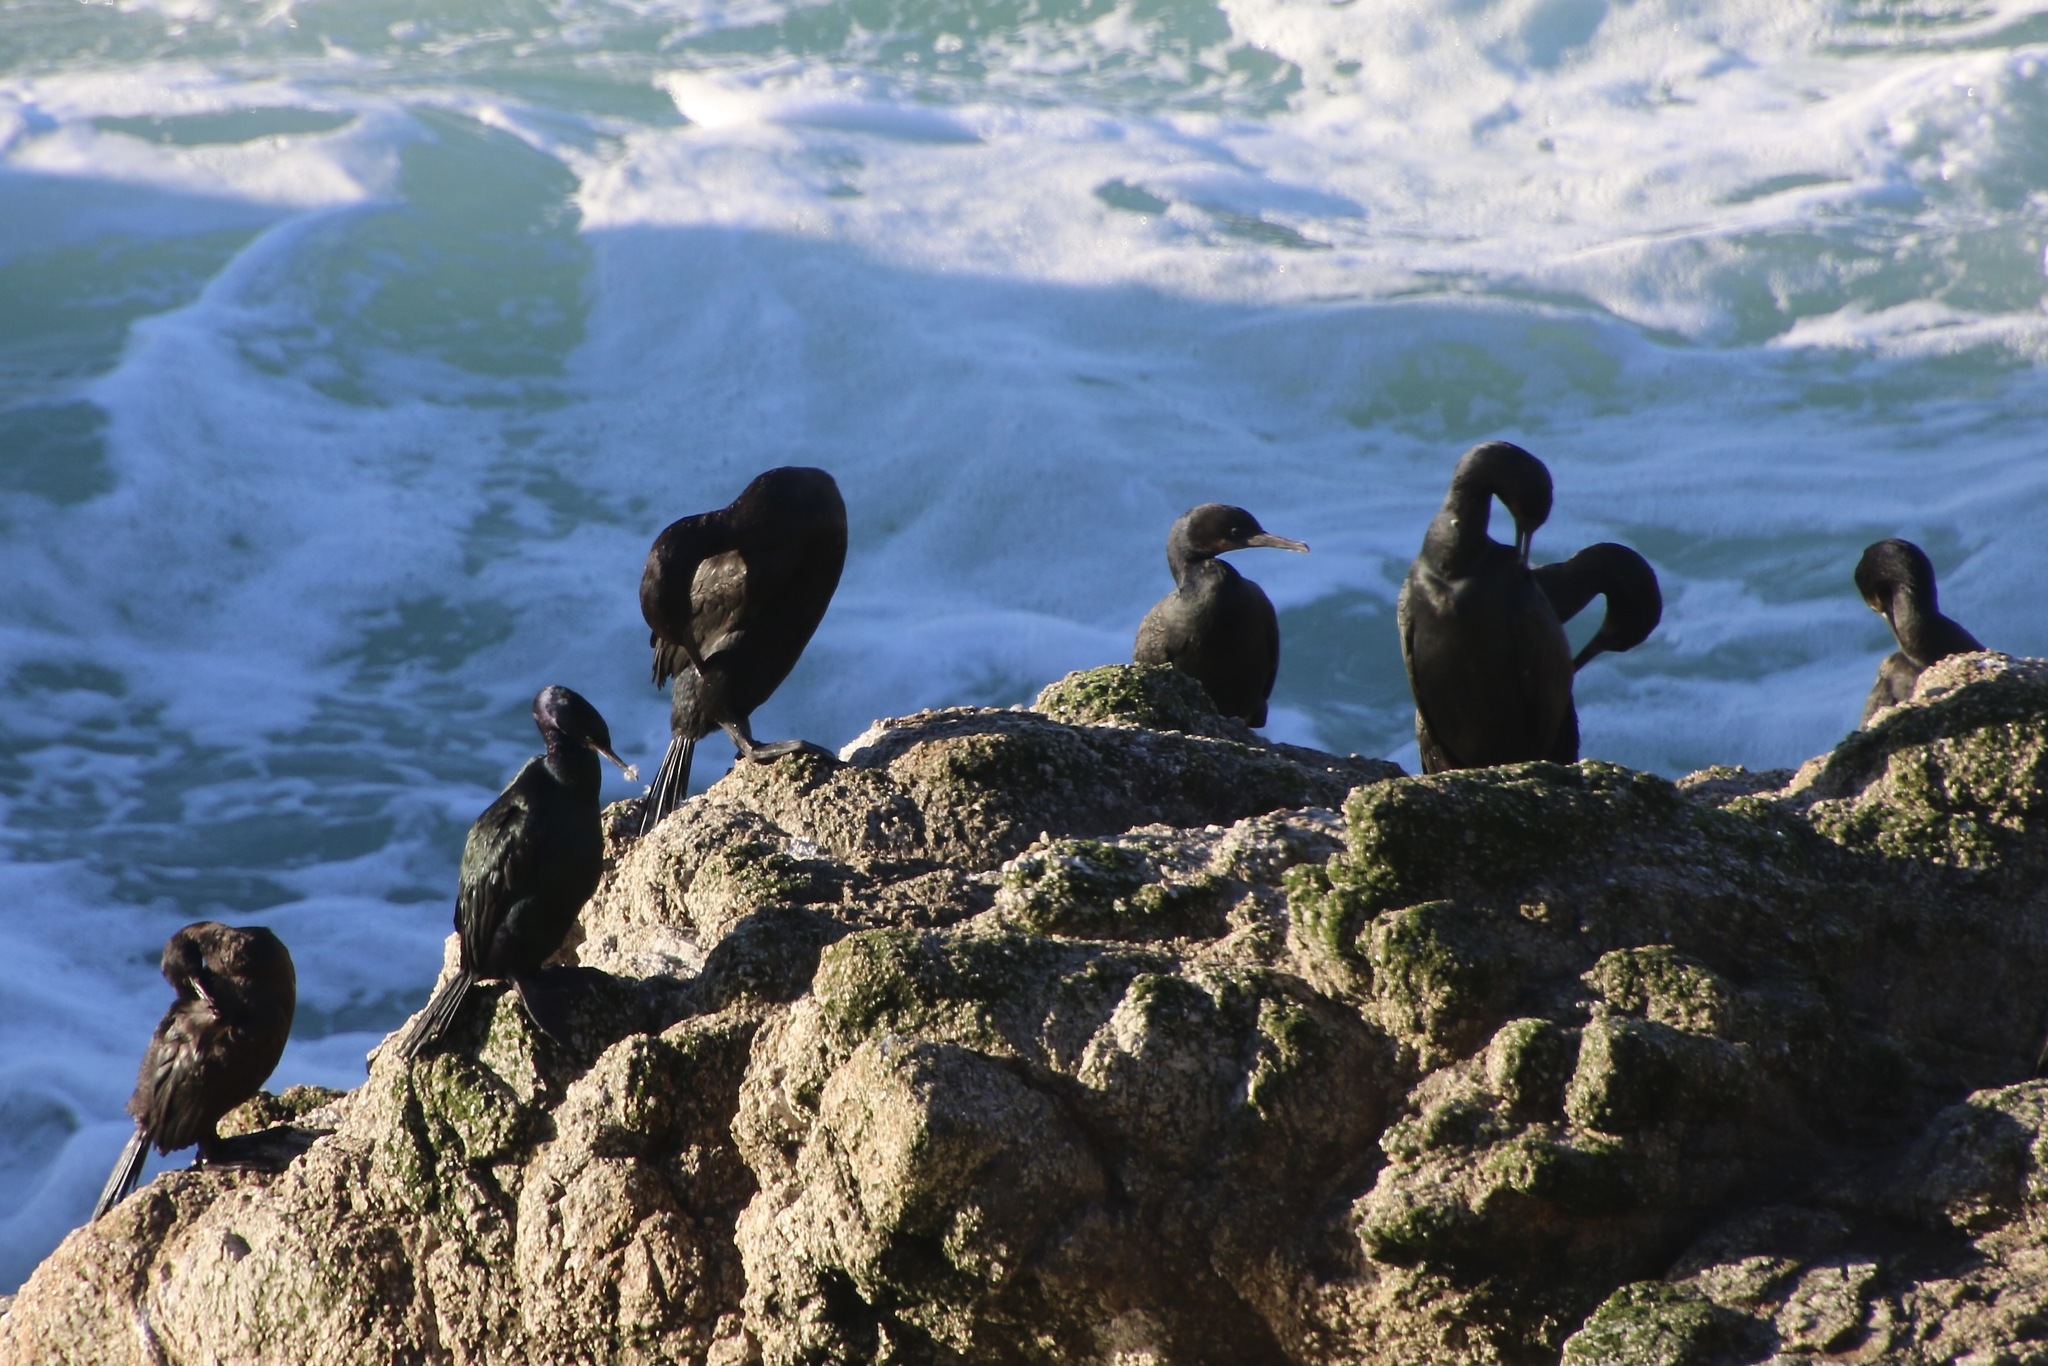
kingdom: Animalia
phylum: Chordata
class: Aves
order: Suliformes
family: Phalacrocoracidae
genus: Urile
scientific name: Urile penicillatus
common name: Brandt's cormorant
